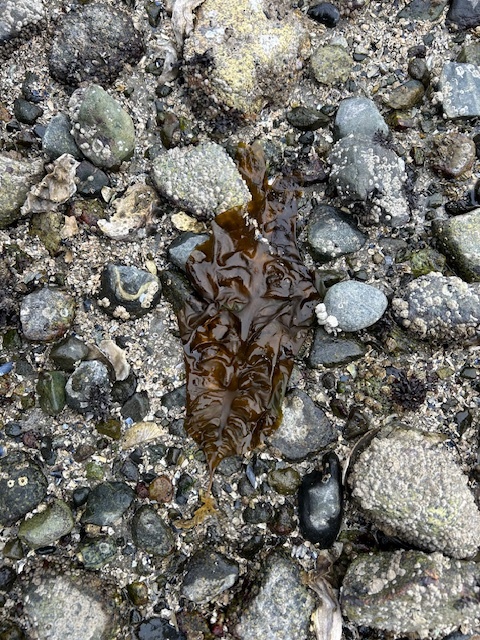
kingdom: Chromista
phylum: Ochrophyta
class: Phaeophyceae
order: Laminariales
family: Laminariaceae
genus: Saccharina
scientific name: Saccharina latissima
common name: Poor man's weather glass
